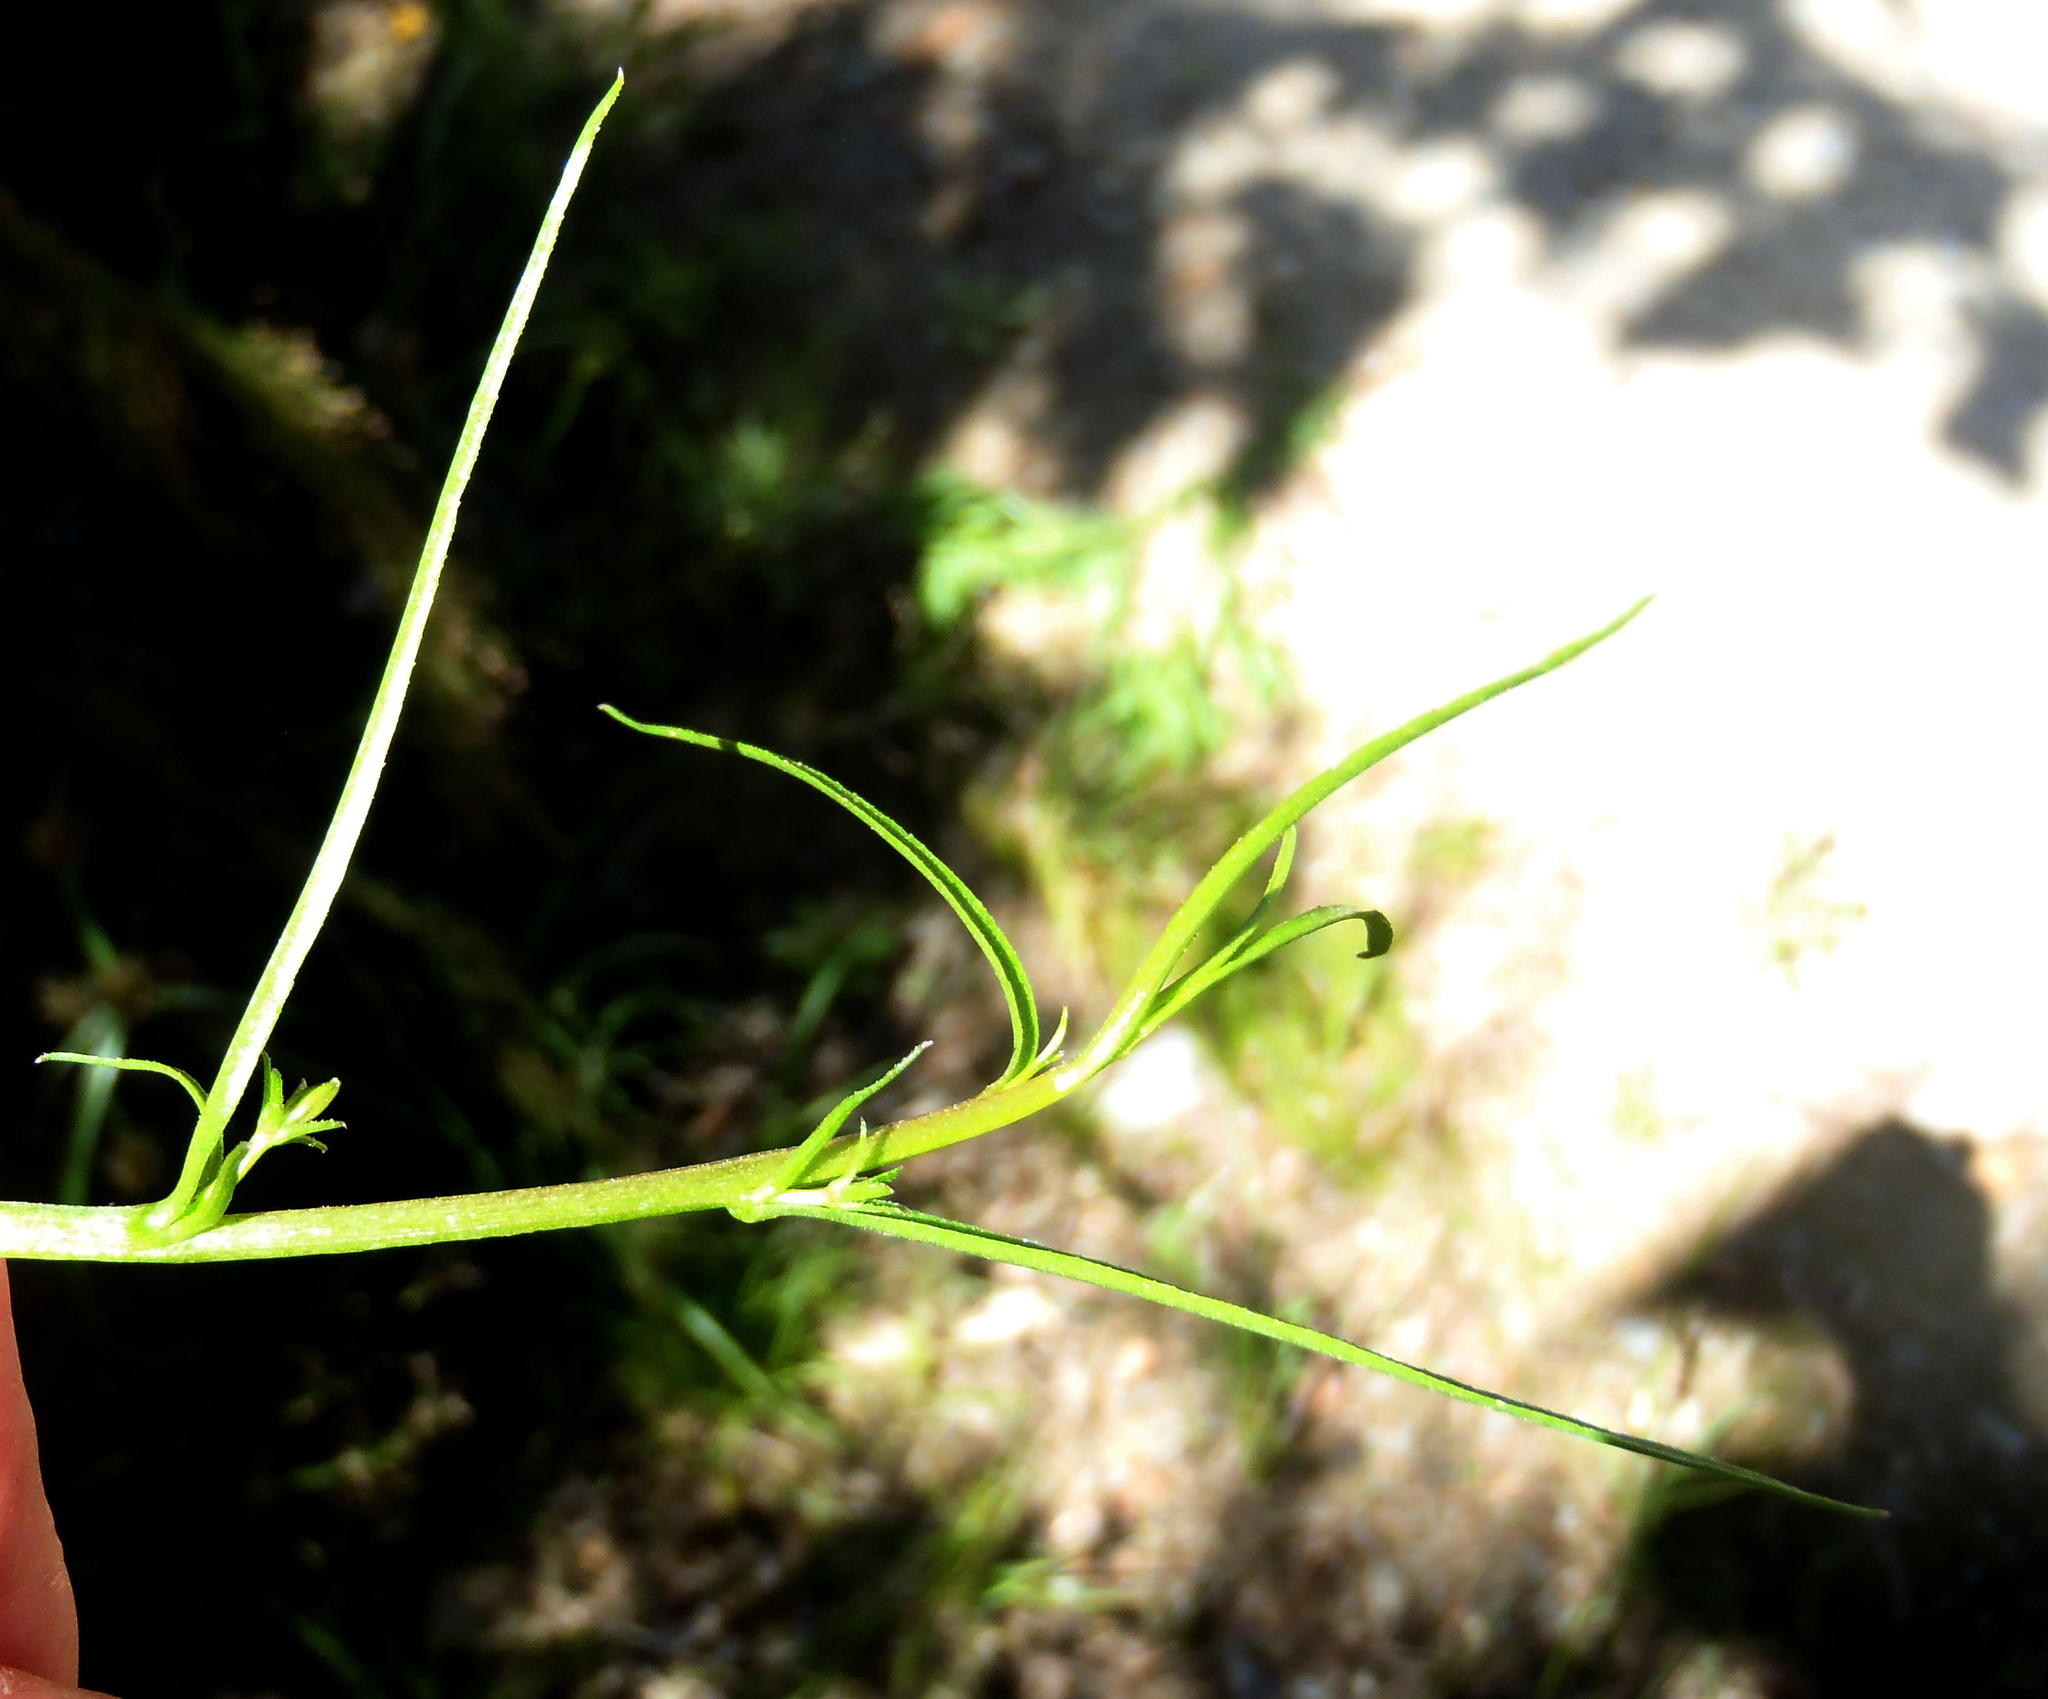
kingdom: Plantae
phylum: Tracheophyta
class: Magnoliopsida
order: Asterales
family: Campanulaceae
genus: Grammatotheca
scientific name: Grammatotheca bergiana
